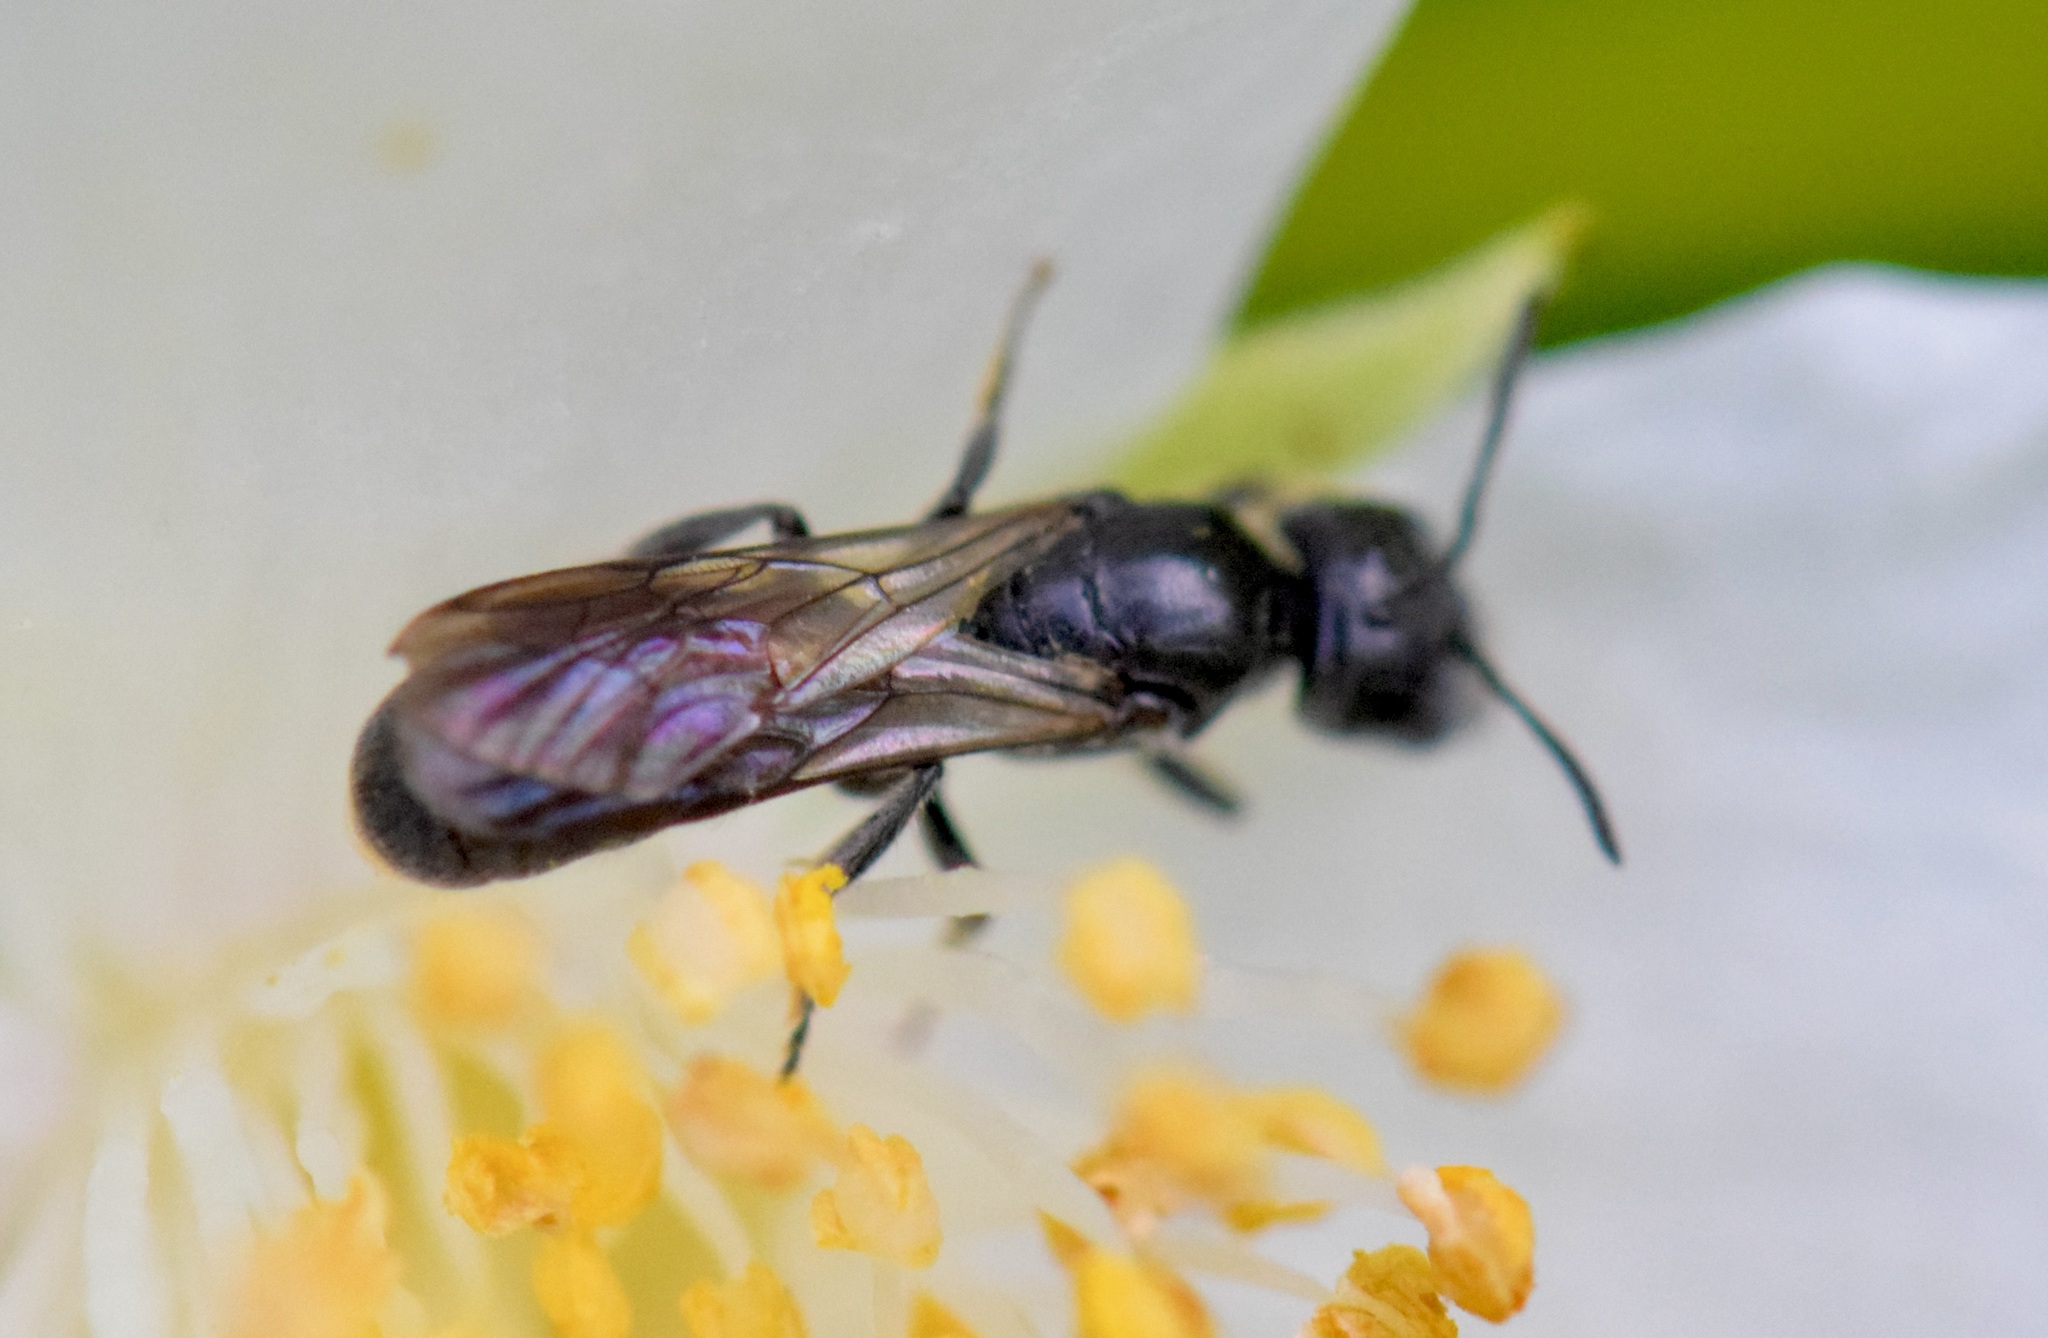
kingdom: Animalia
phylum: Arthropoda
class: Insecta
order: Hymenoptera
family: Megachilidae
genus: Chelostoma
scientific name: Chelostoma philadelphi
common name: Mock-orange scissor bee
